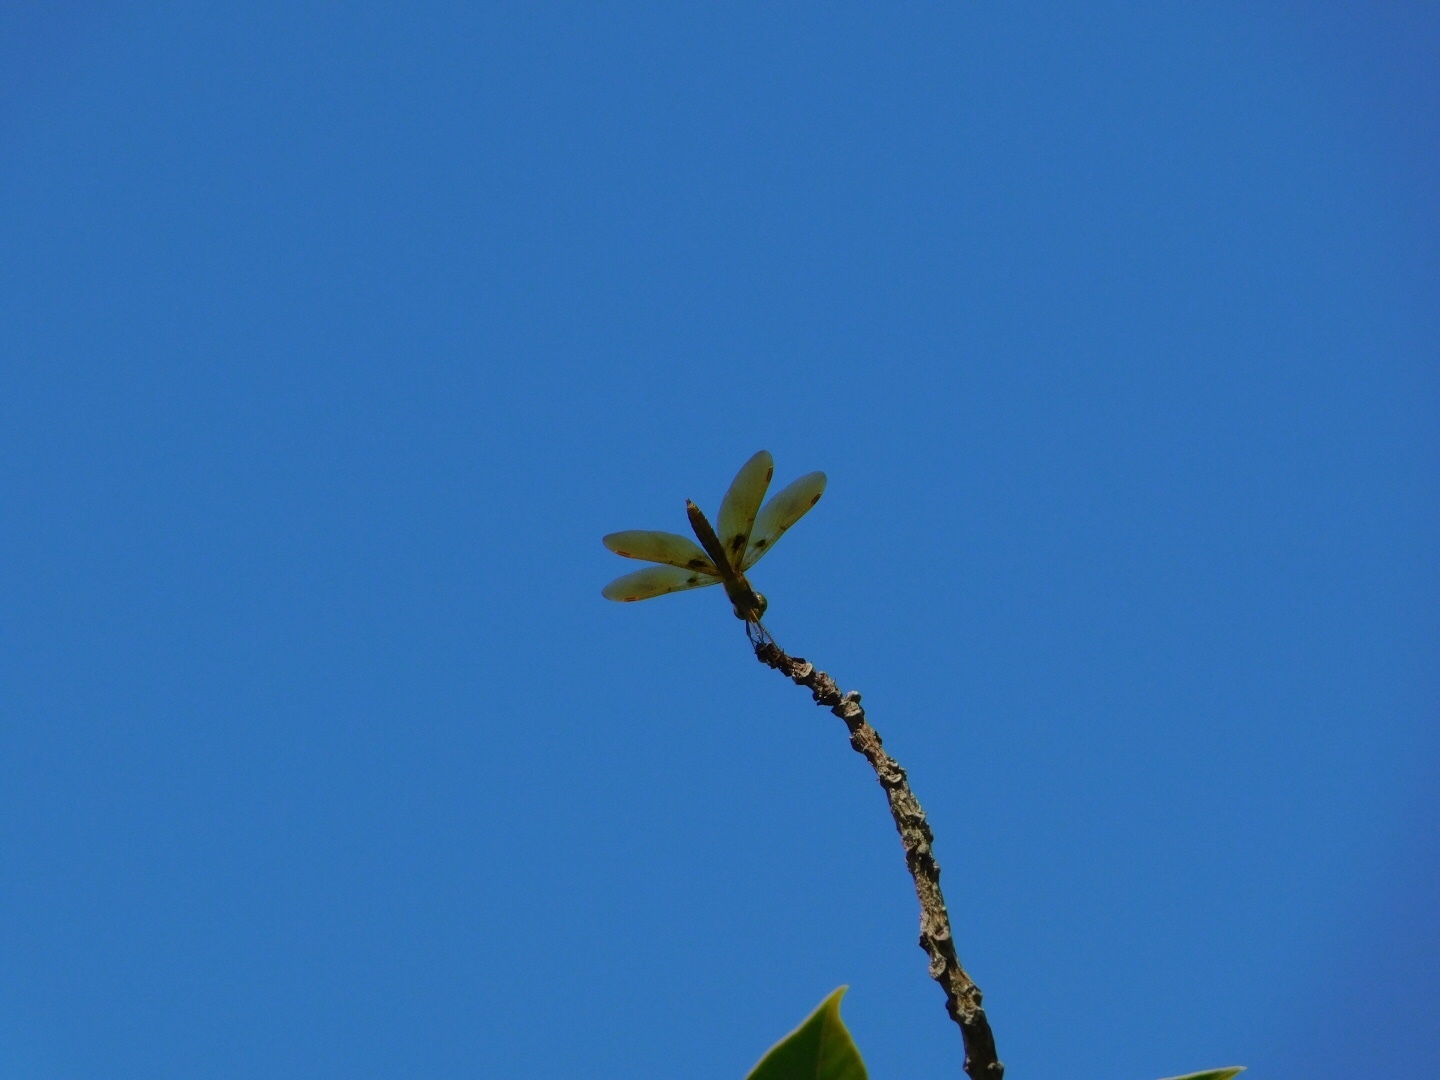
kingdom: Animalia
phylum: Arthropoda
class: Insecta
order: Odonata
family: Libellulidae
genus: Perithemis
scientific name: Perithemis tenera
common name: Eastern amberwing
